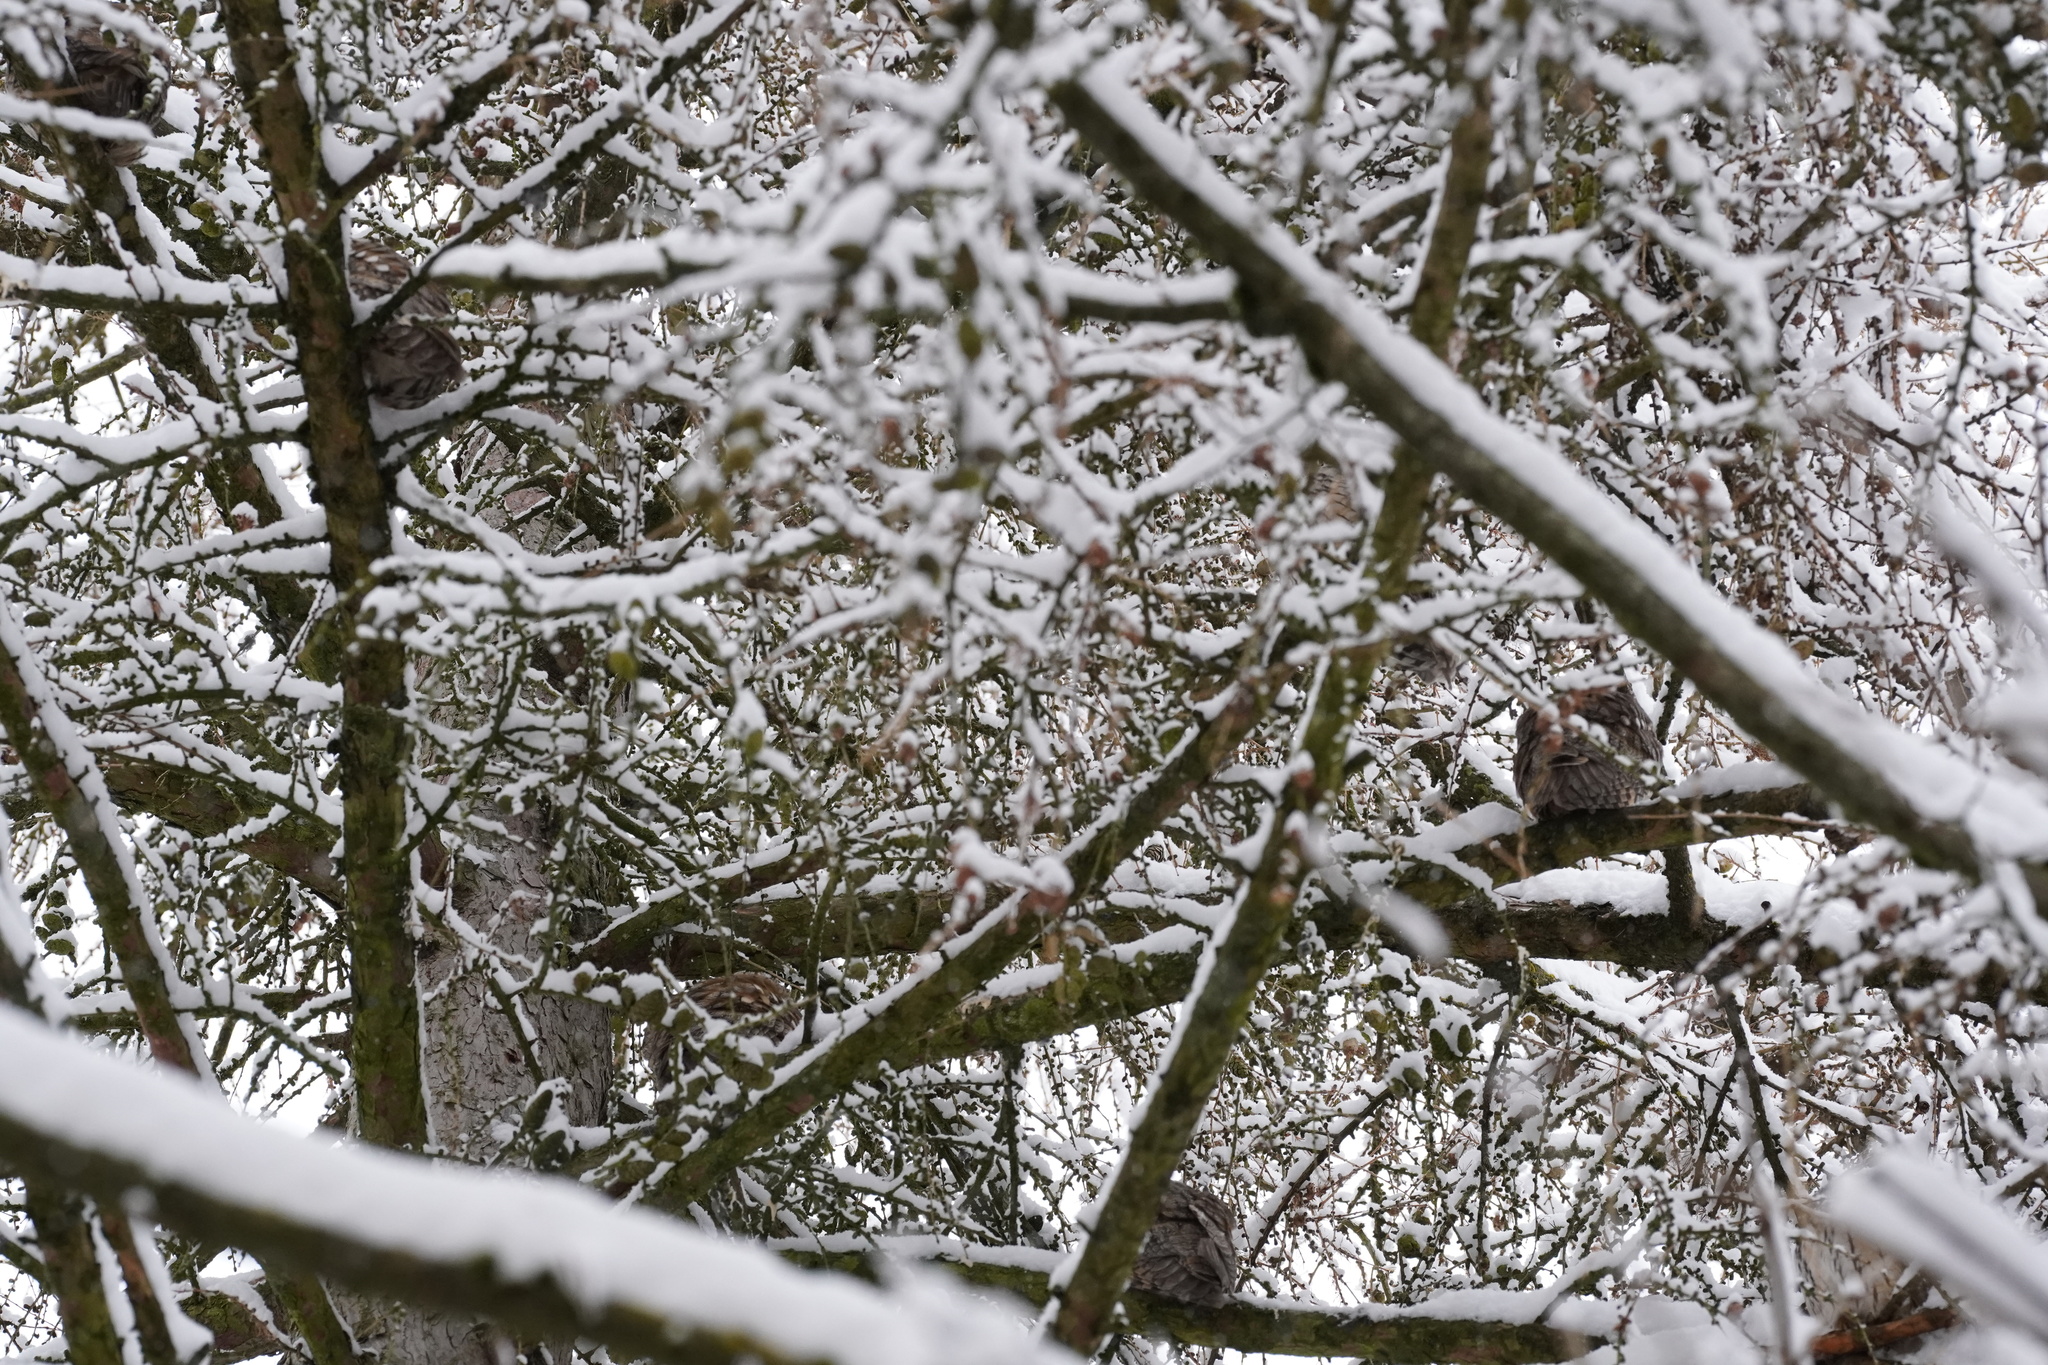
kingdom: Animalia
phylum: Chordata
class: Aves
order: Strigiformes
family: Strigidae
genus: Asio
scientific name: Asio otus
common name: Long-eared owl
